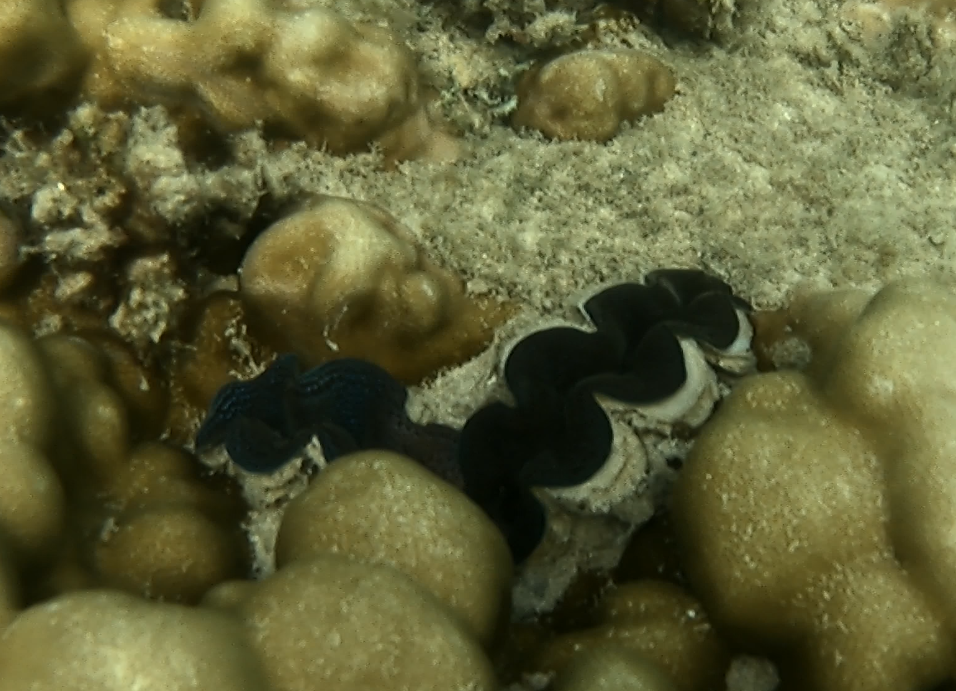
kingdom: Animalia
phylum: Mollusca
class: Bivalvia
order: Cardiida
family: Cardiidae
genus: Tridacna
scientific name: Tridacna crocea
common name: Boring clam
